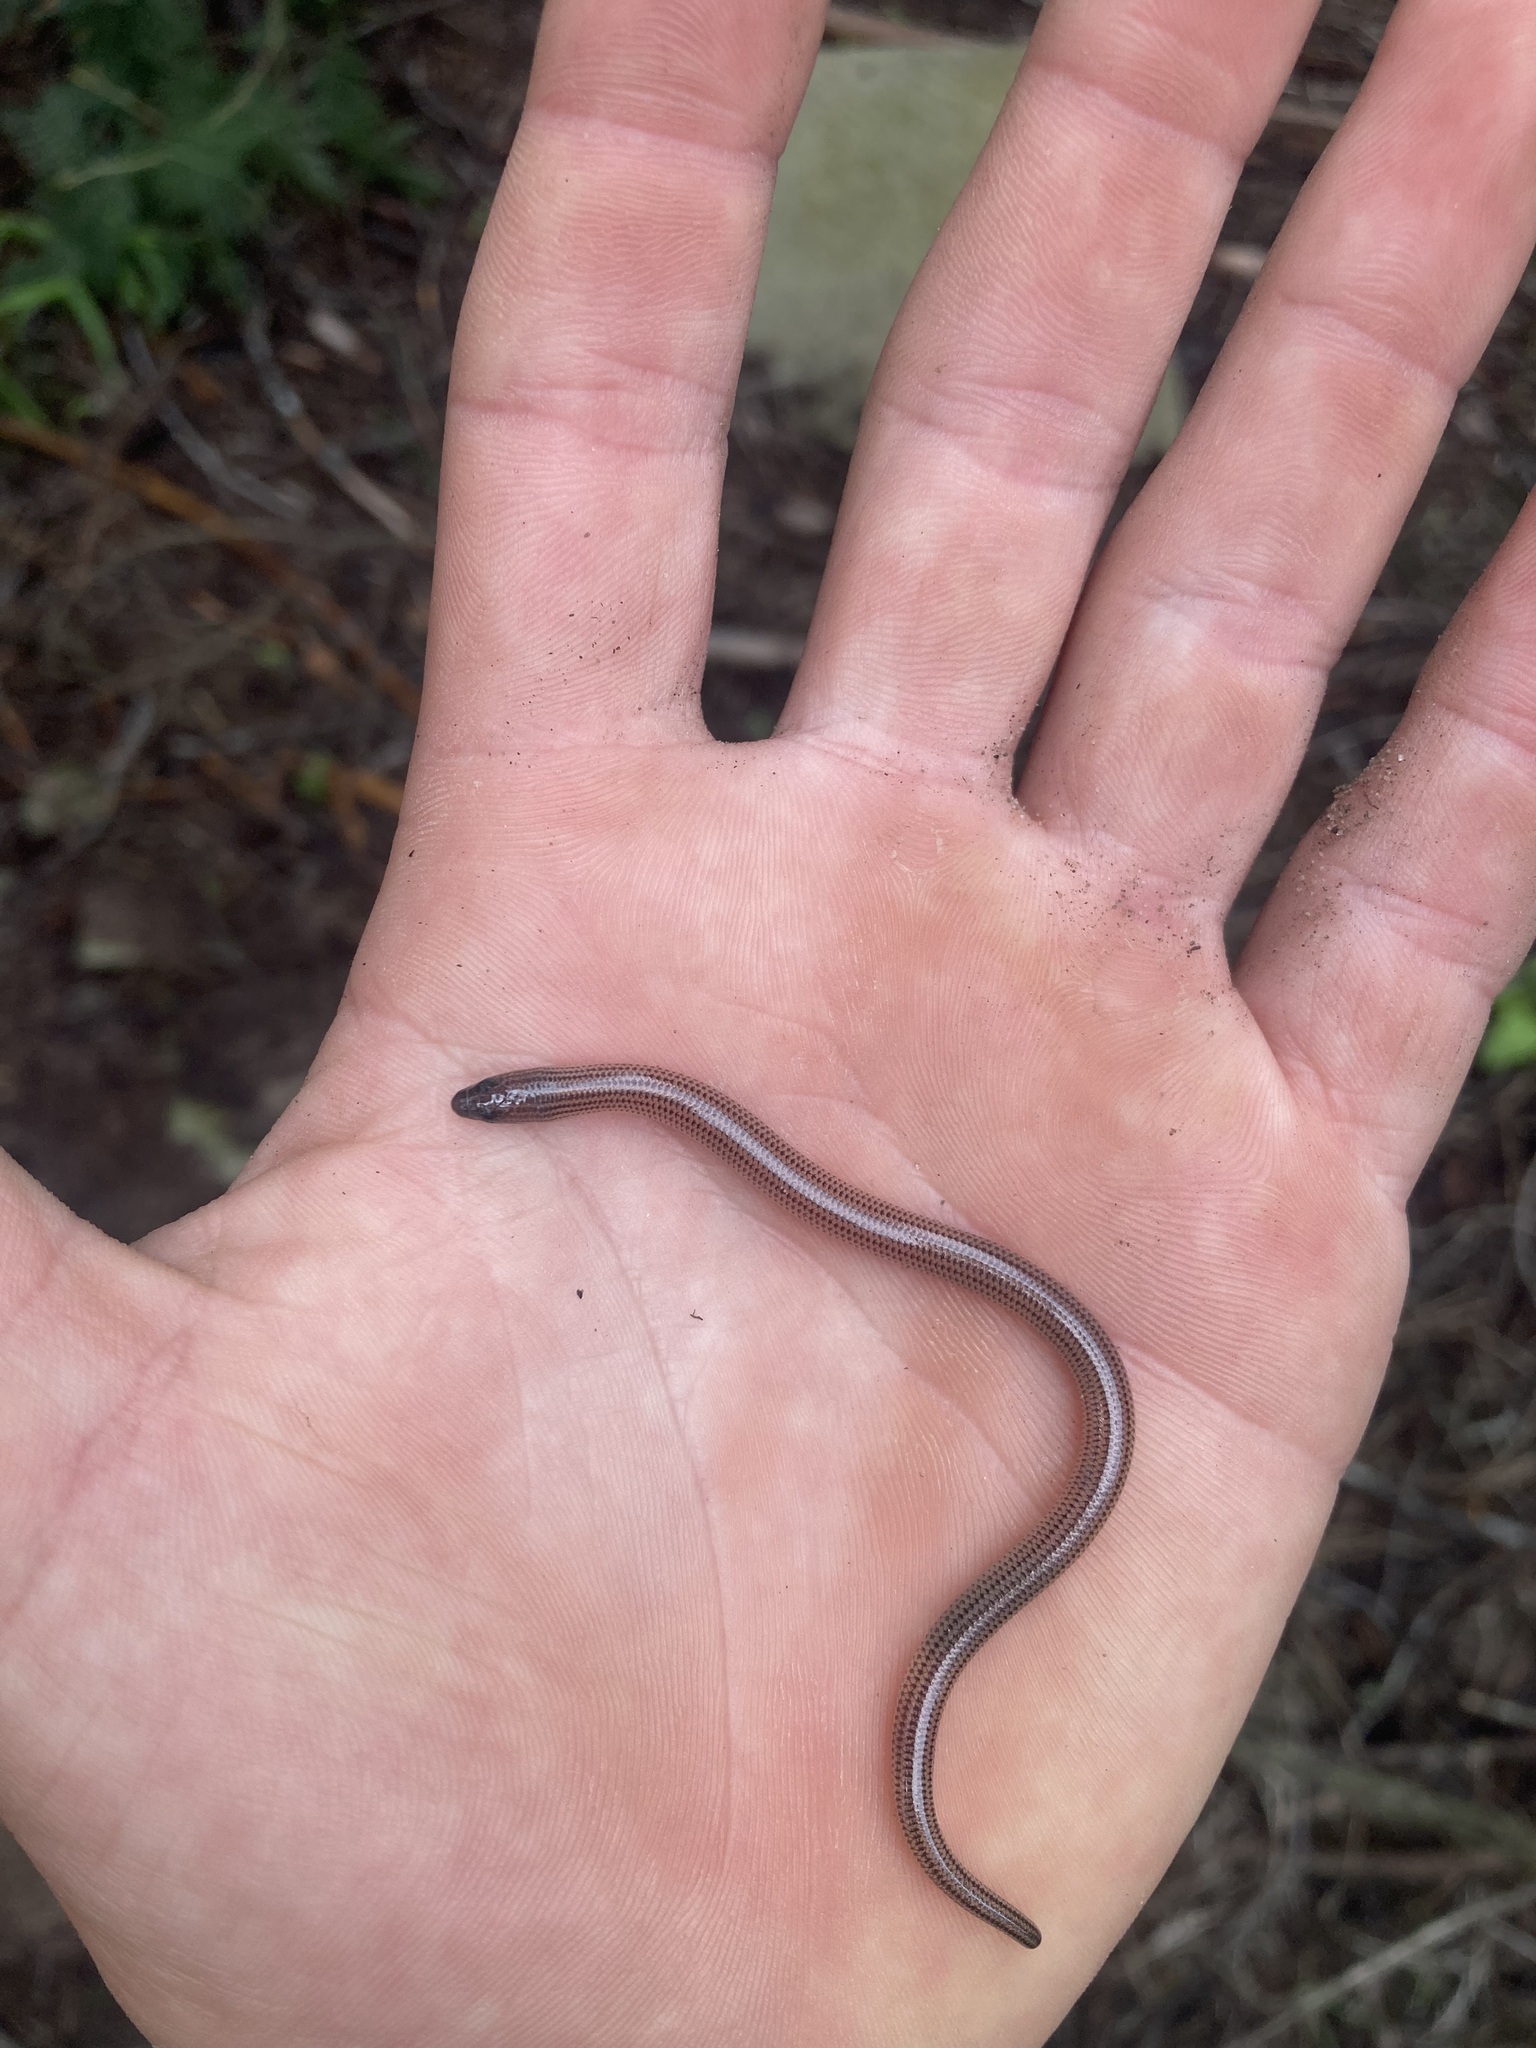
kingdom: Animalia
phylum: Chordata
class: Squamata
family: Scincidae
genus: Acontias
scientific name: Acontias meleagris
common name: Cape legless skink
